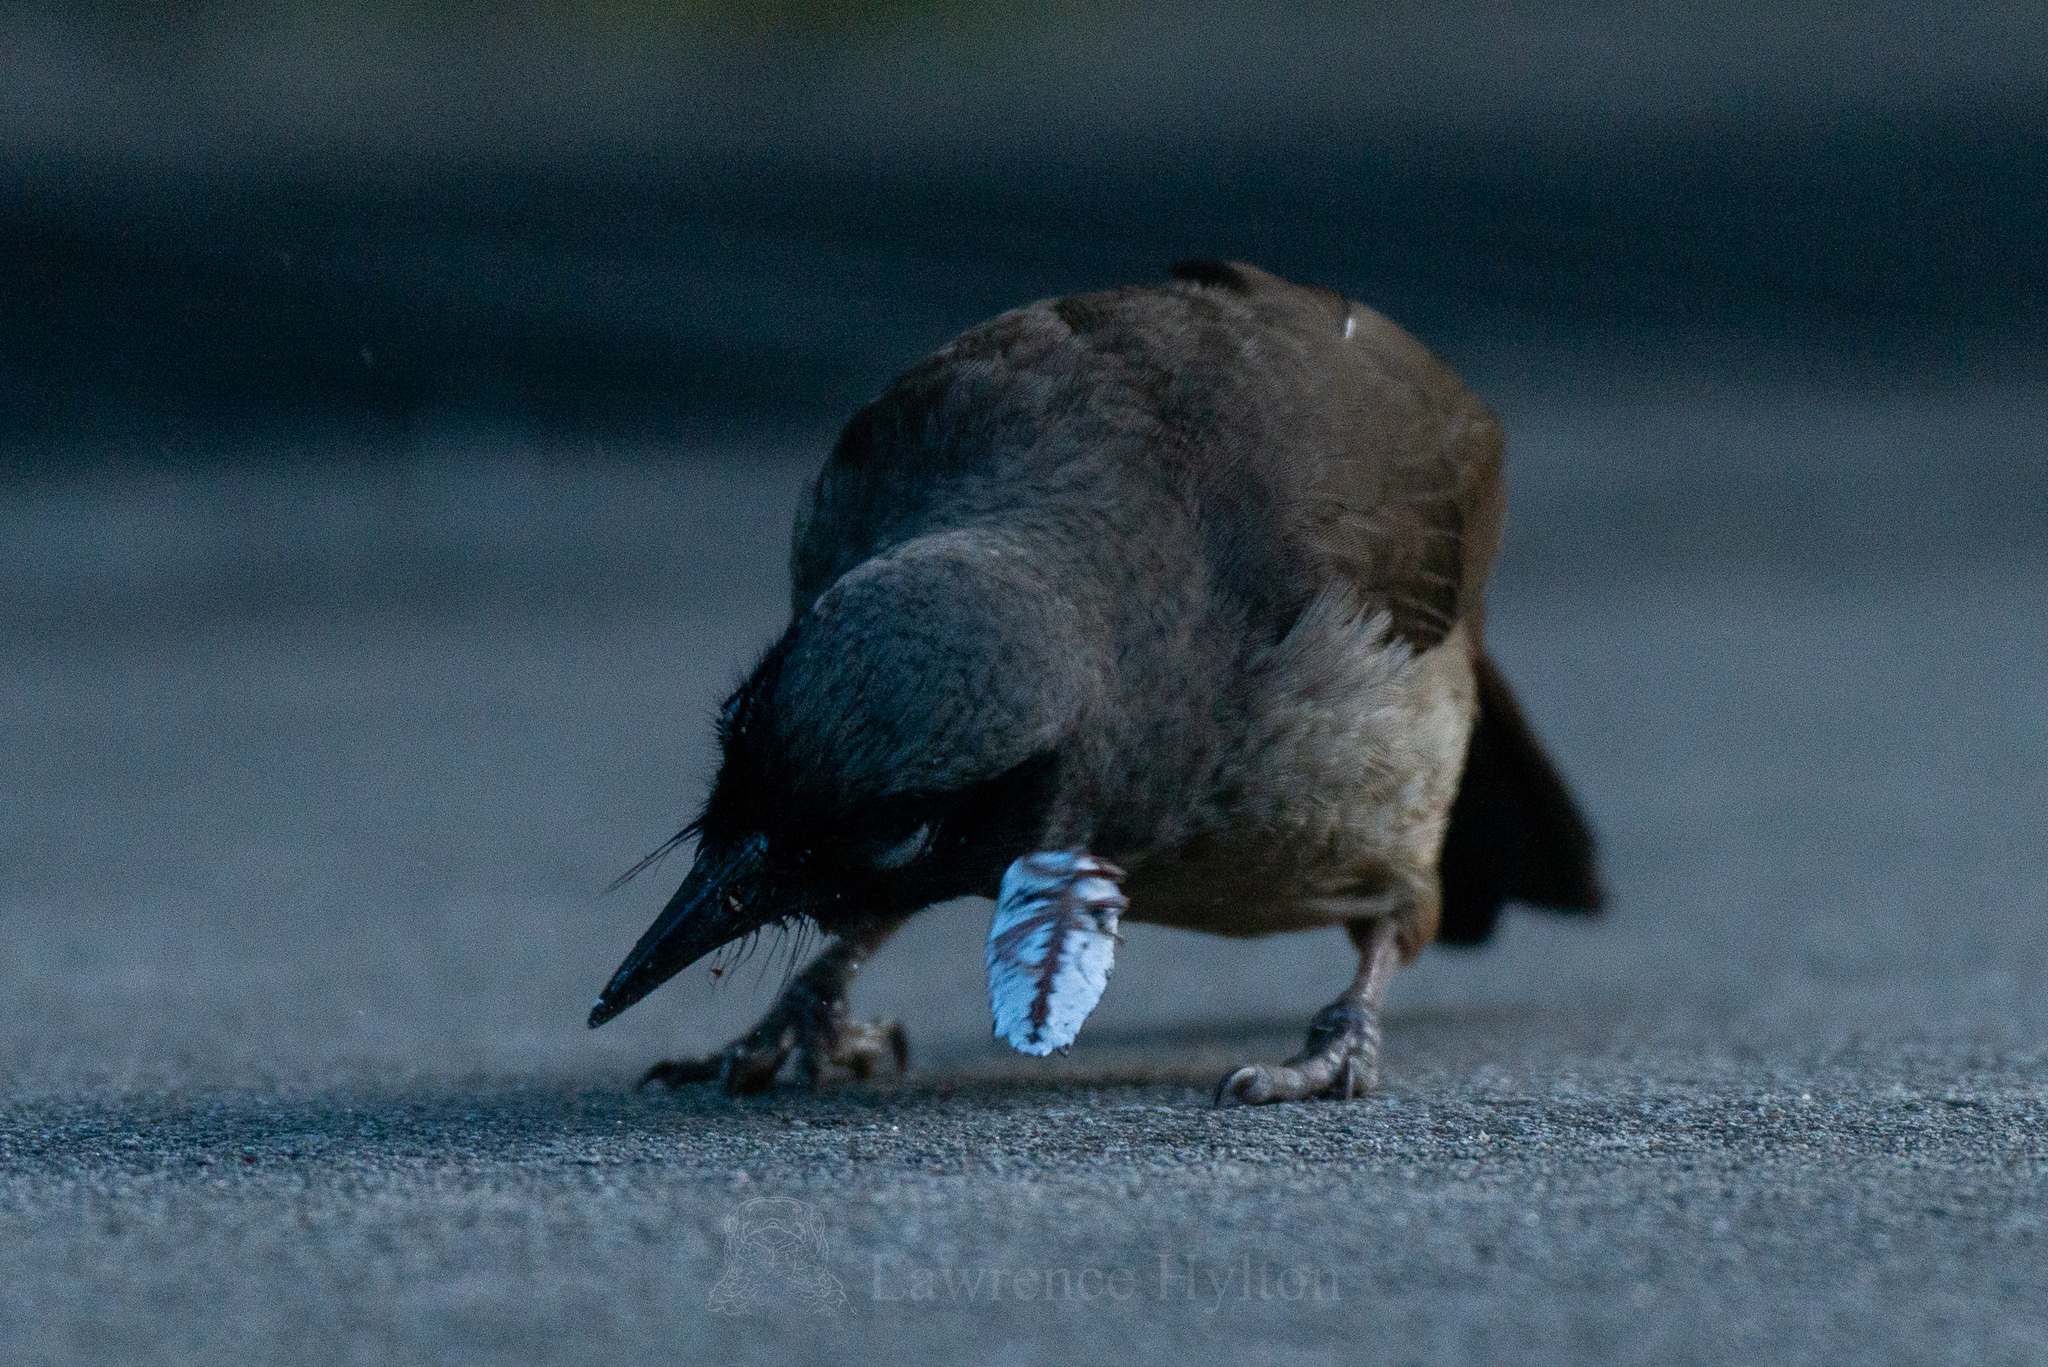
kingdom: Animalia
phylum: Chordata
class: Aves
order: Passeriformes
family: Leiothrichidae
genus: Garrulax
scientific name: Garrulax perspicillatus
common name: Masked laughingthrush
